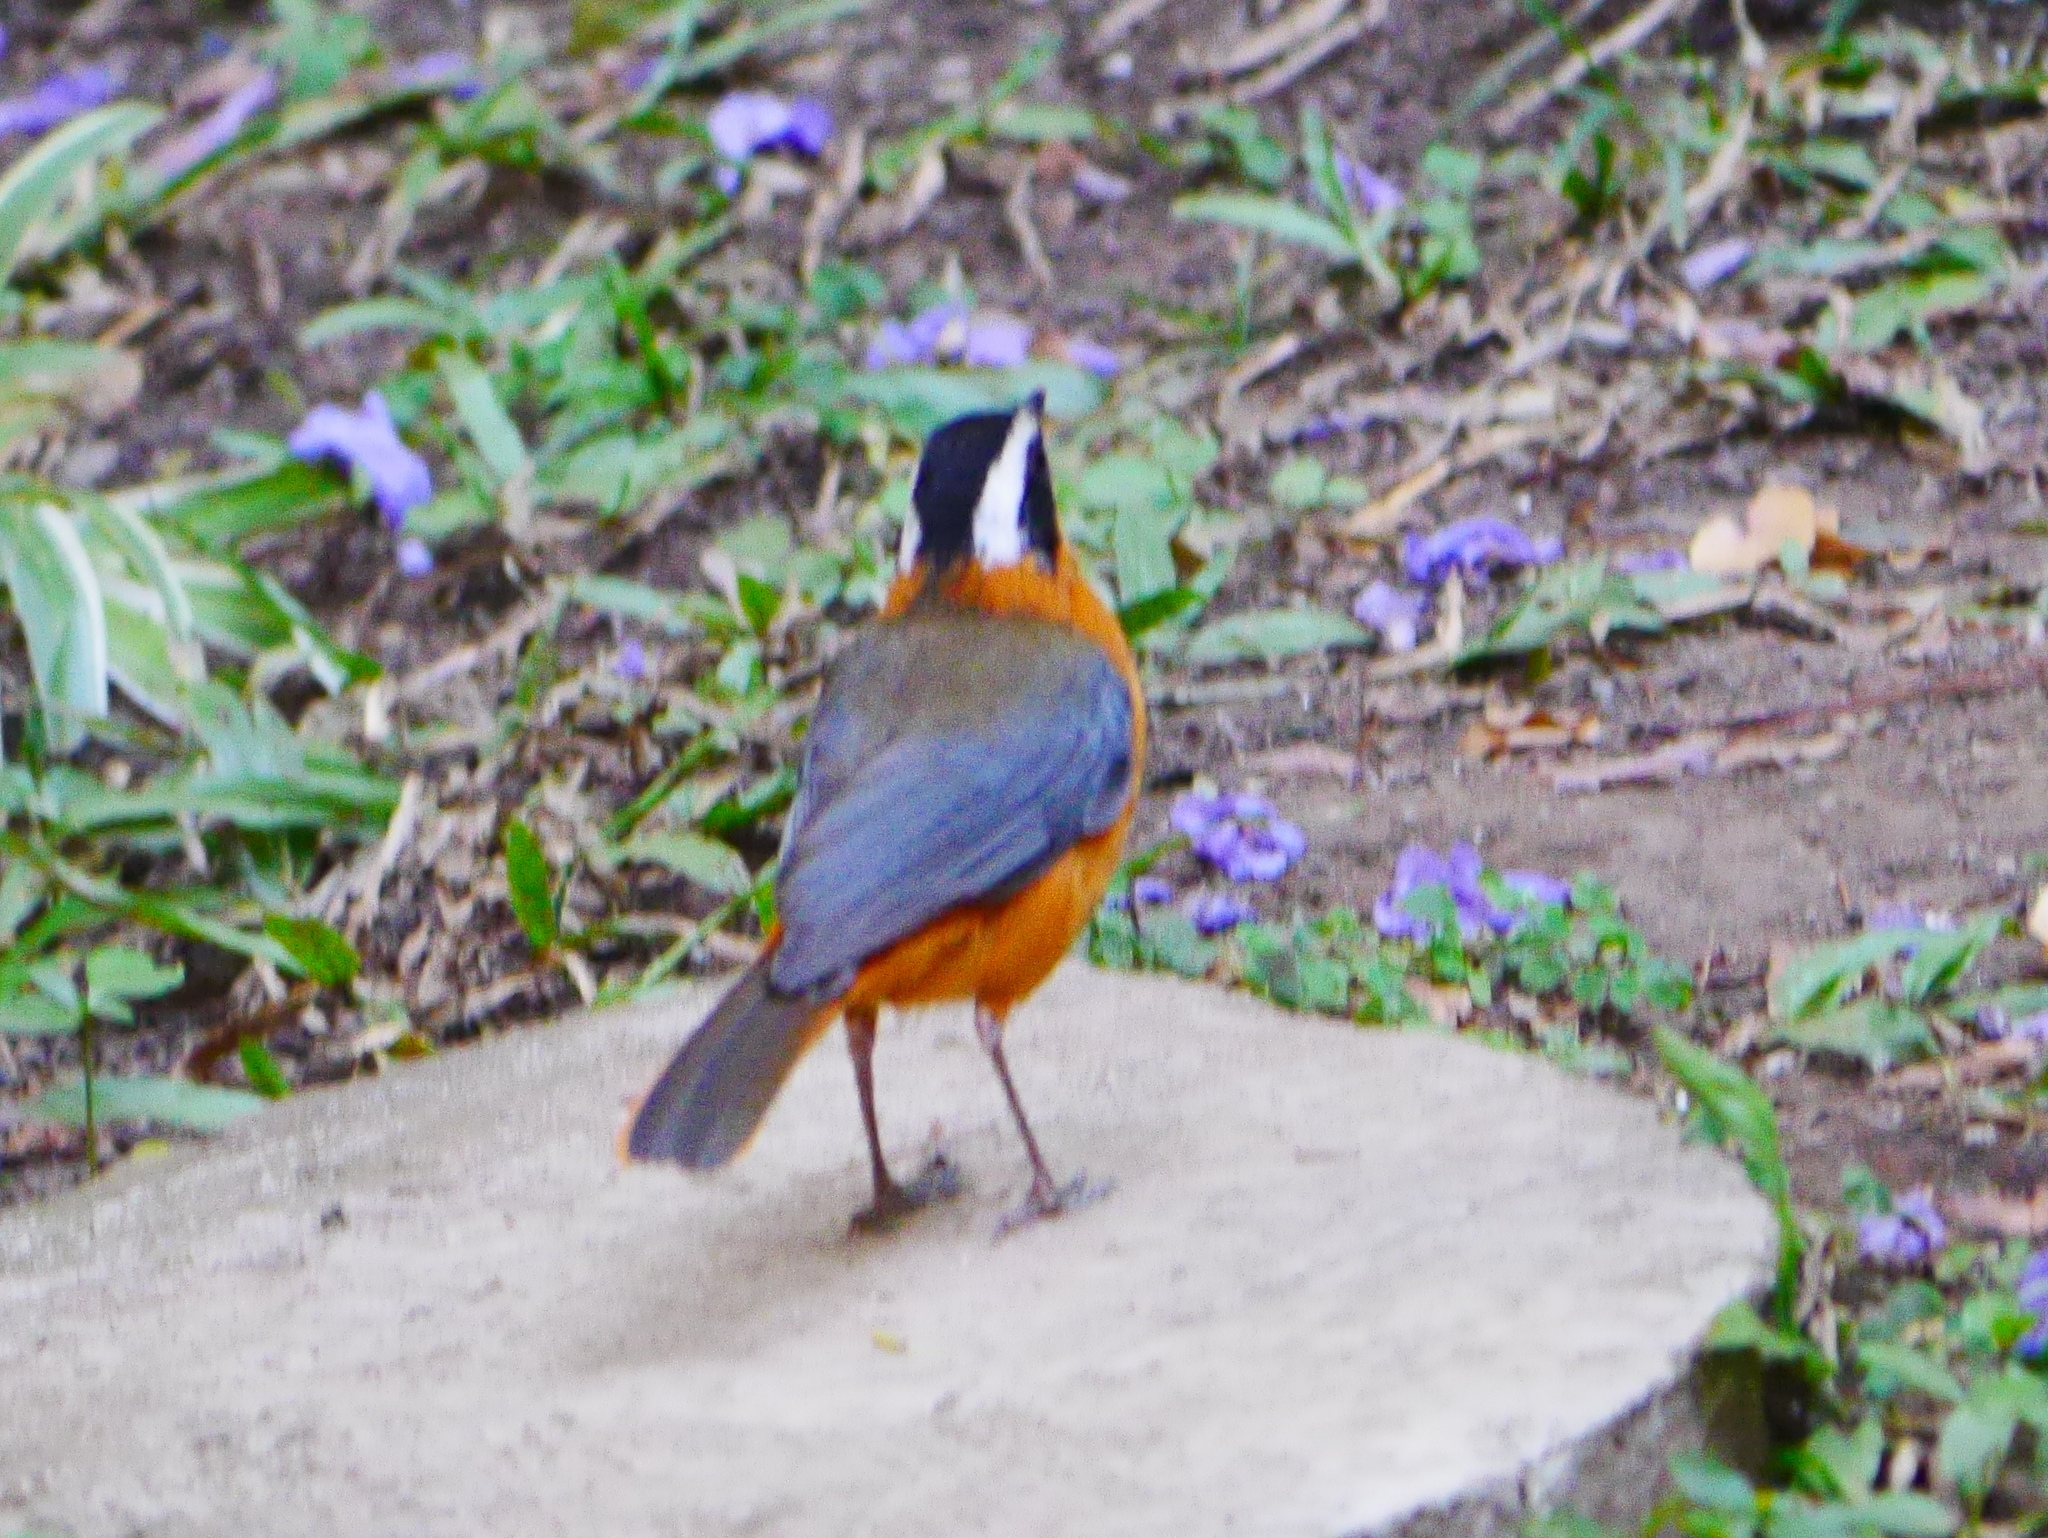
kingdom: Animalia
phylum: Chordata
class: Aves
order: Passeriformes
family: Muscicapidae
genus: Cossypha
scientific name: Cossypha heuglini
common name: White-browed robin-chat
